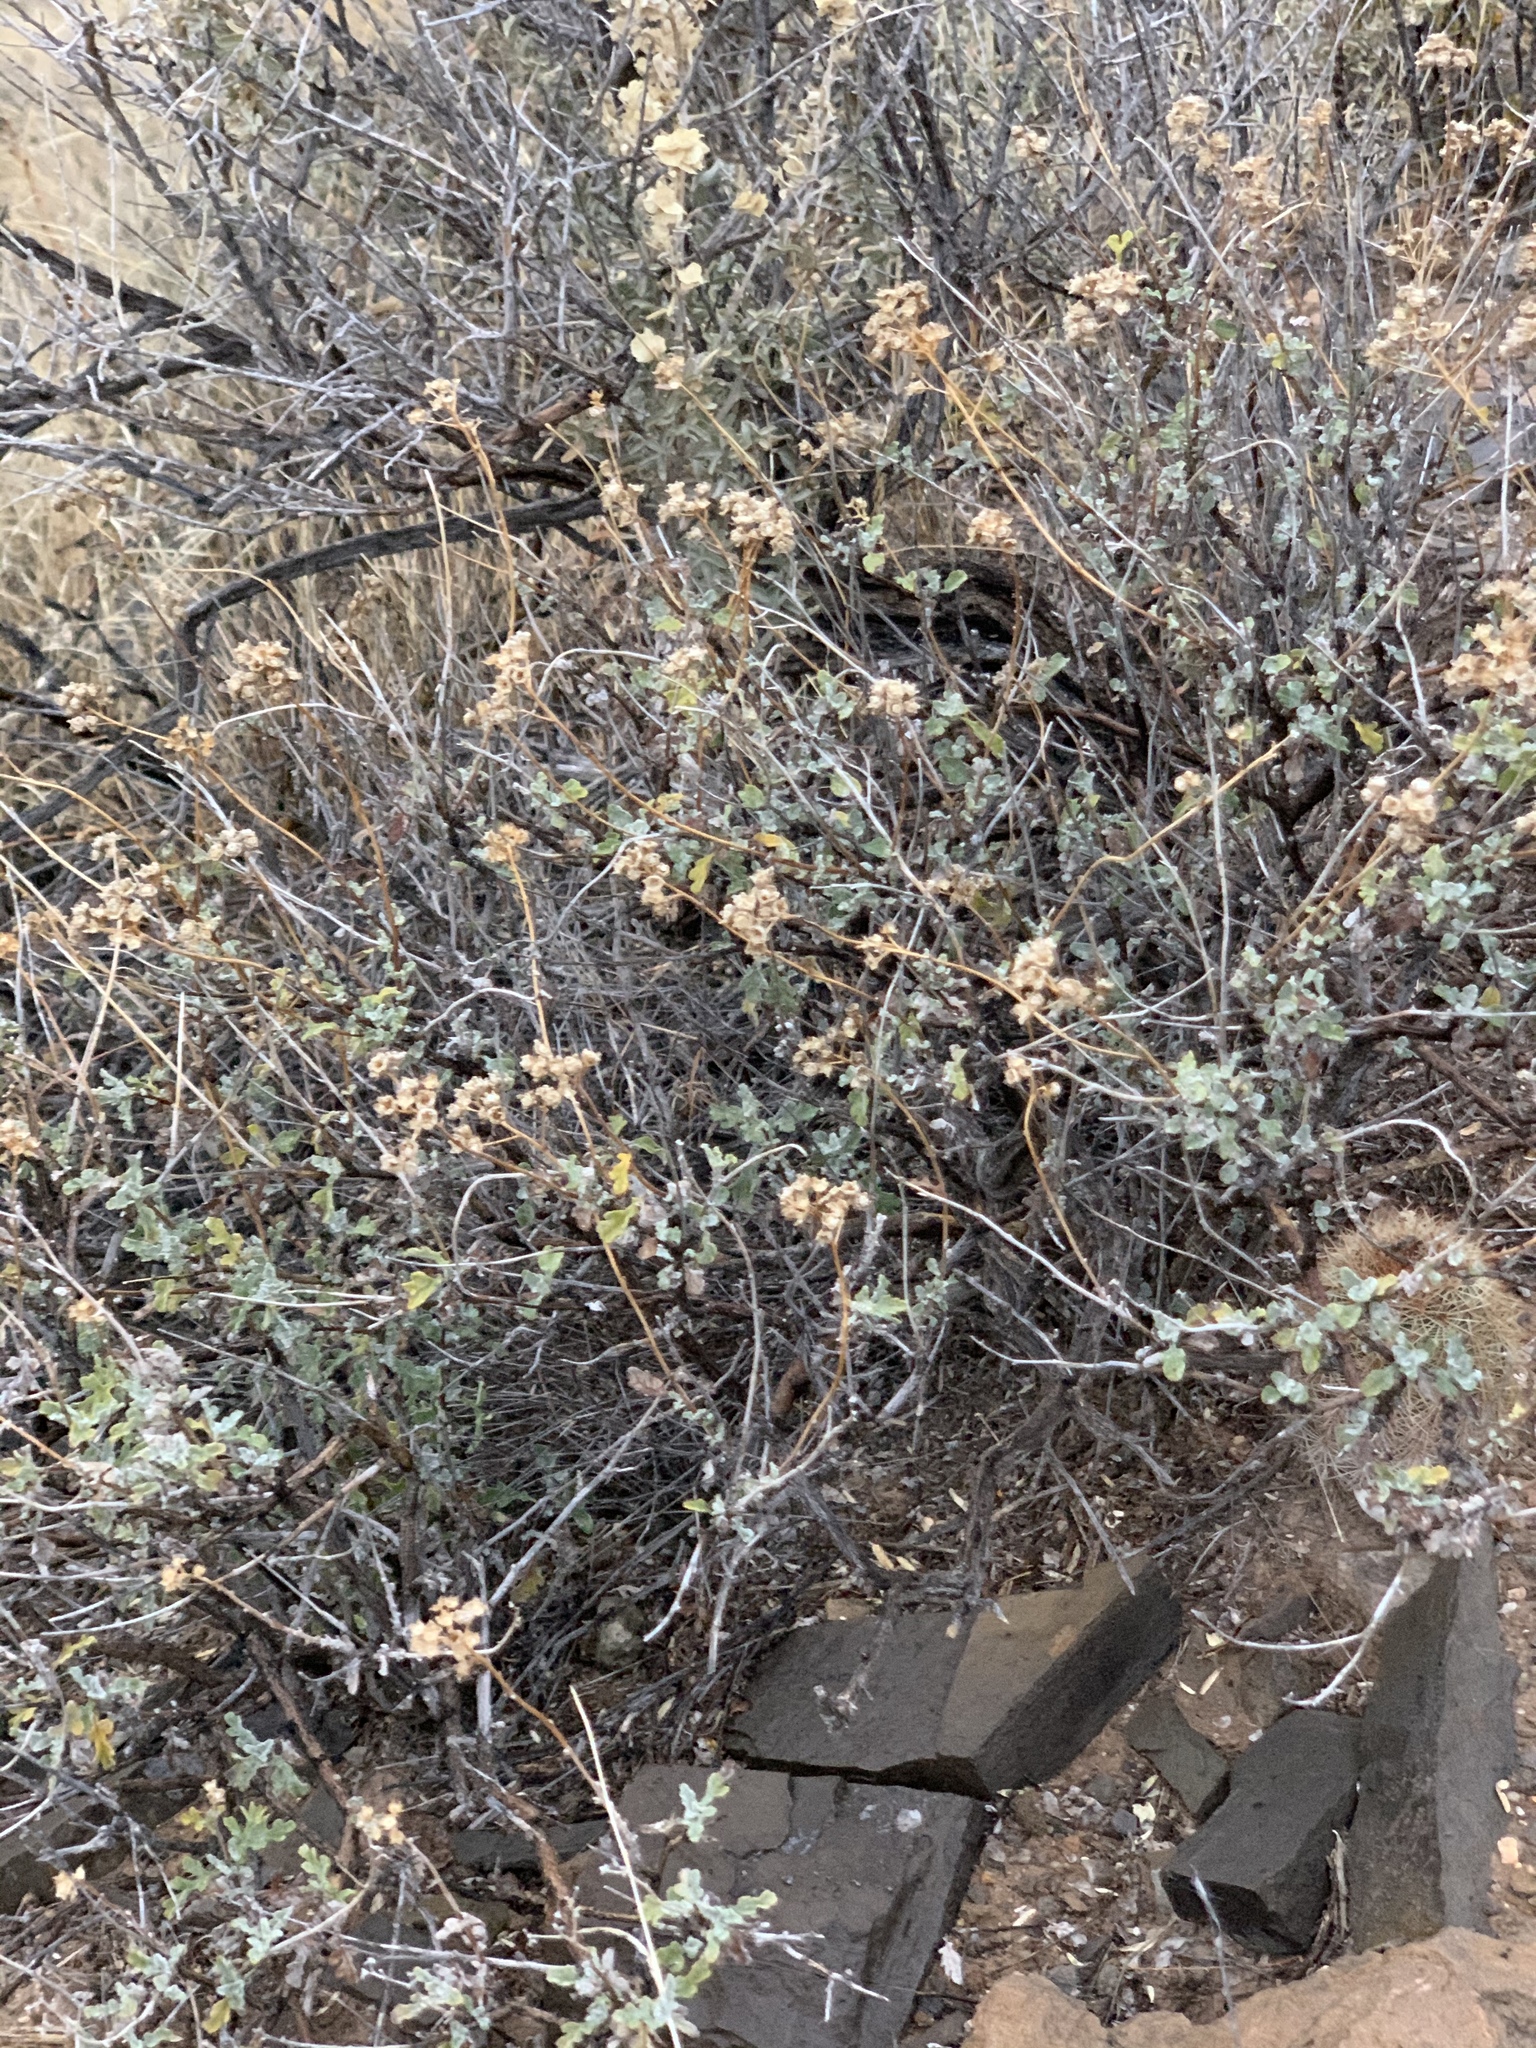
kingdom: Plantae
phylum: Tracheophyta
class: Magnoliopsida
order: Asterales
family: Asteraceae
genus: Parthenium
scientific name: Parthenium incanum
